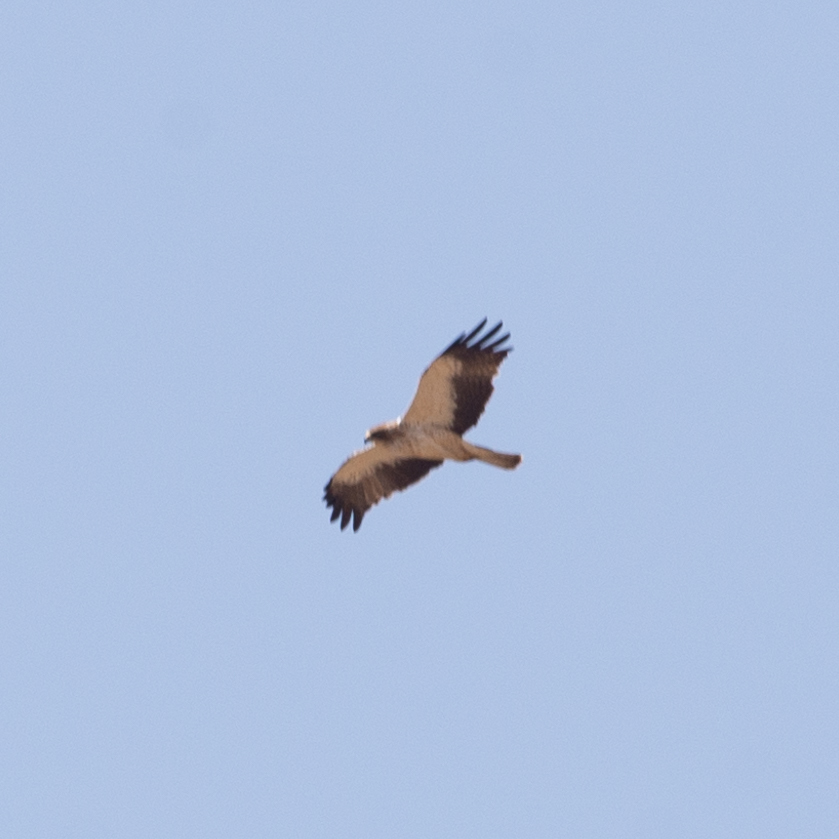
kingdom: Animalia
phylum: Chordata
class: Aves
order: Accipitriformes
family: Accipitridae
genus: Hieraaetus
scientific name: Hieraaetus pennatus
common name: Booted eagle
